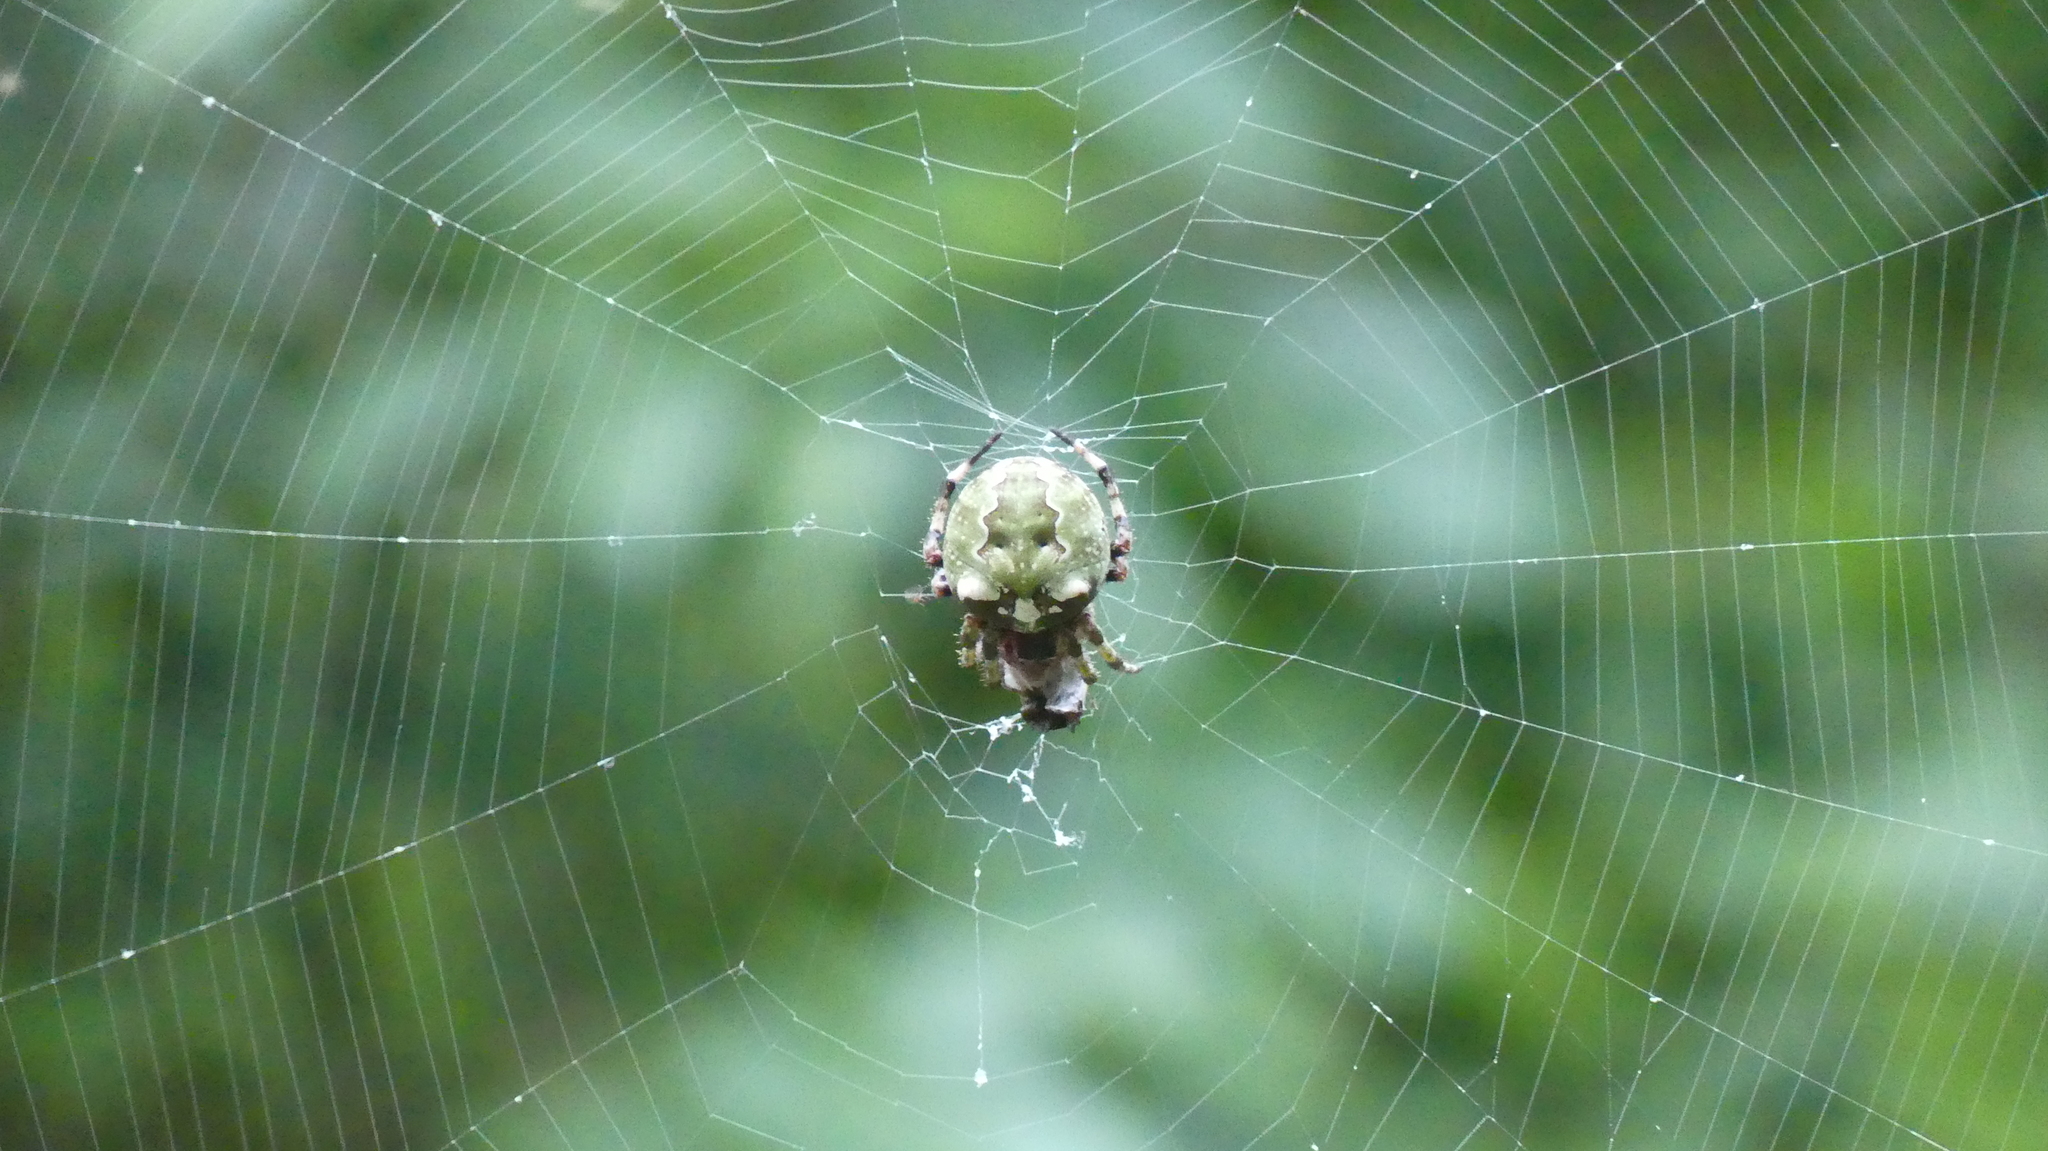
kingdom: Animalia
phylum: Arthropoda
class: Arachnida
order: Araneae
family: Araneidae
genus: Araneus
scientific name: Araneus bicentenarius
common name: Giant lichen orbweaver
